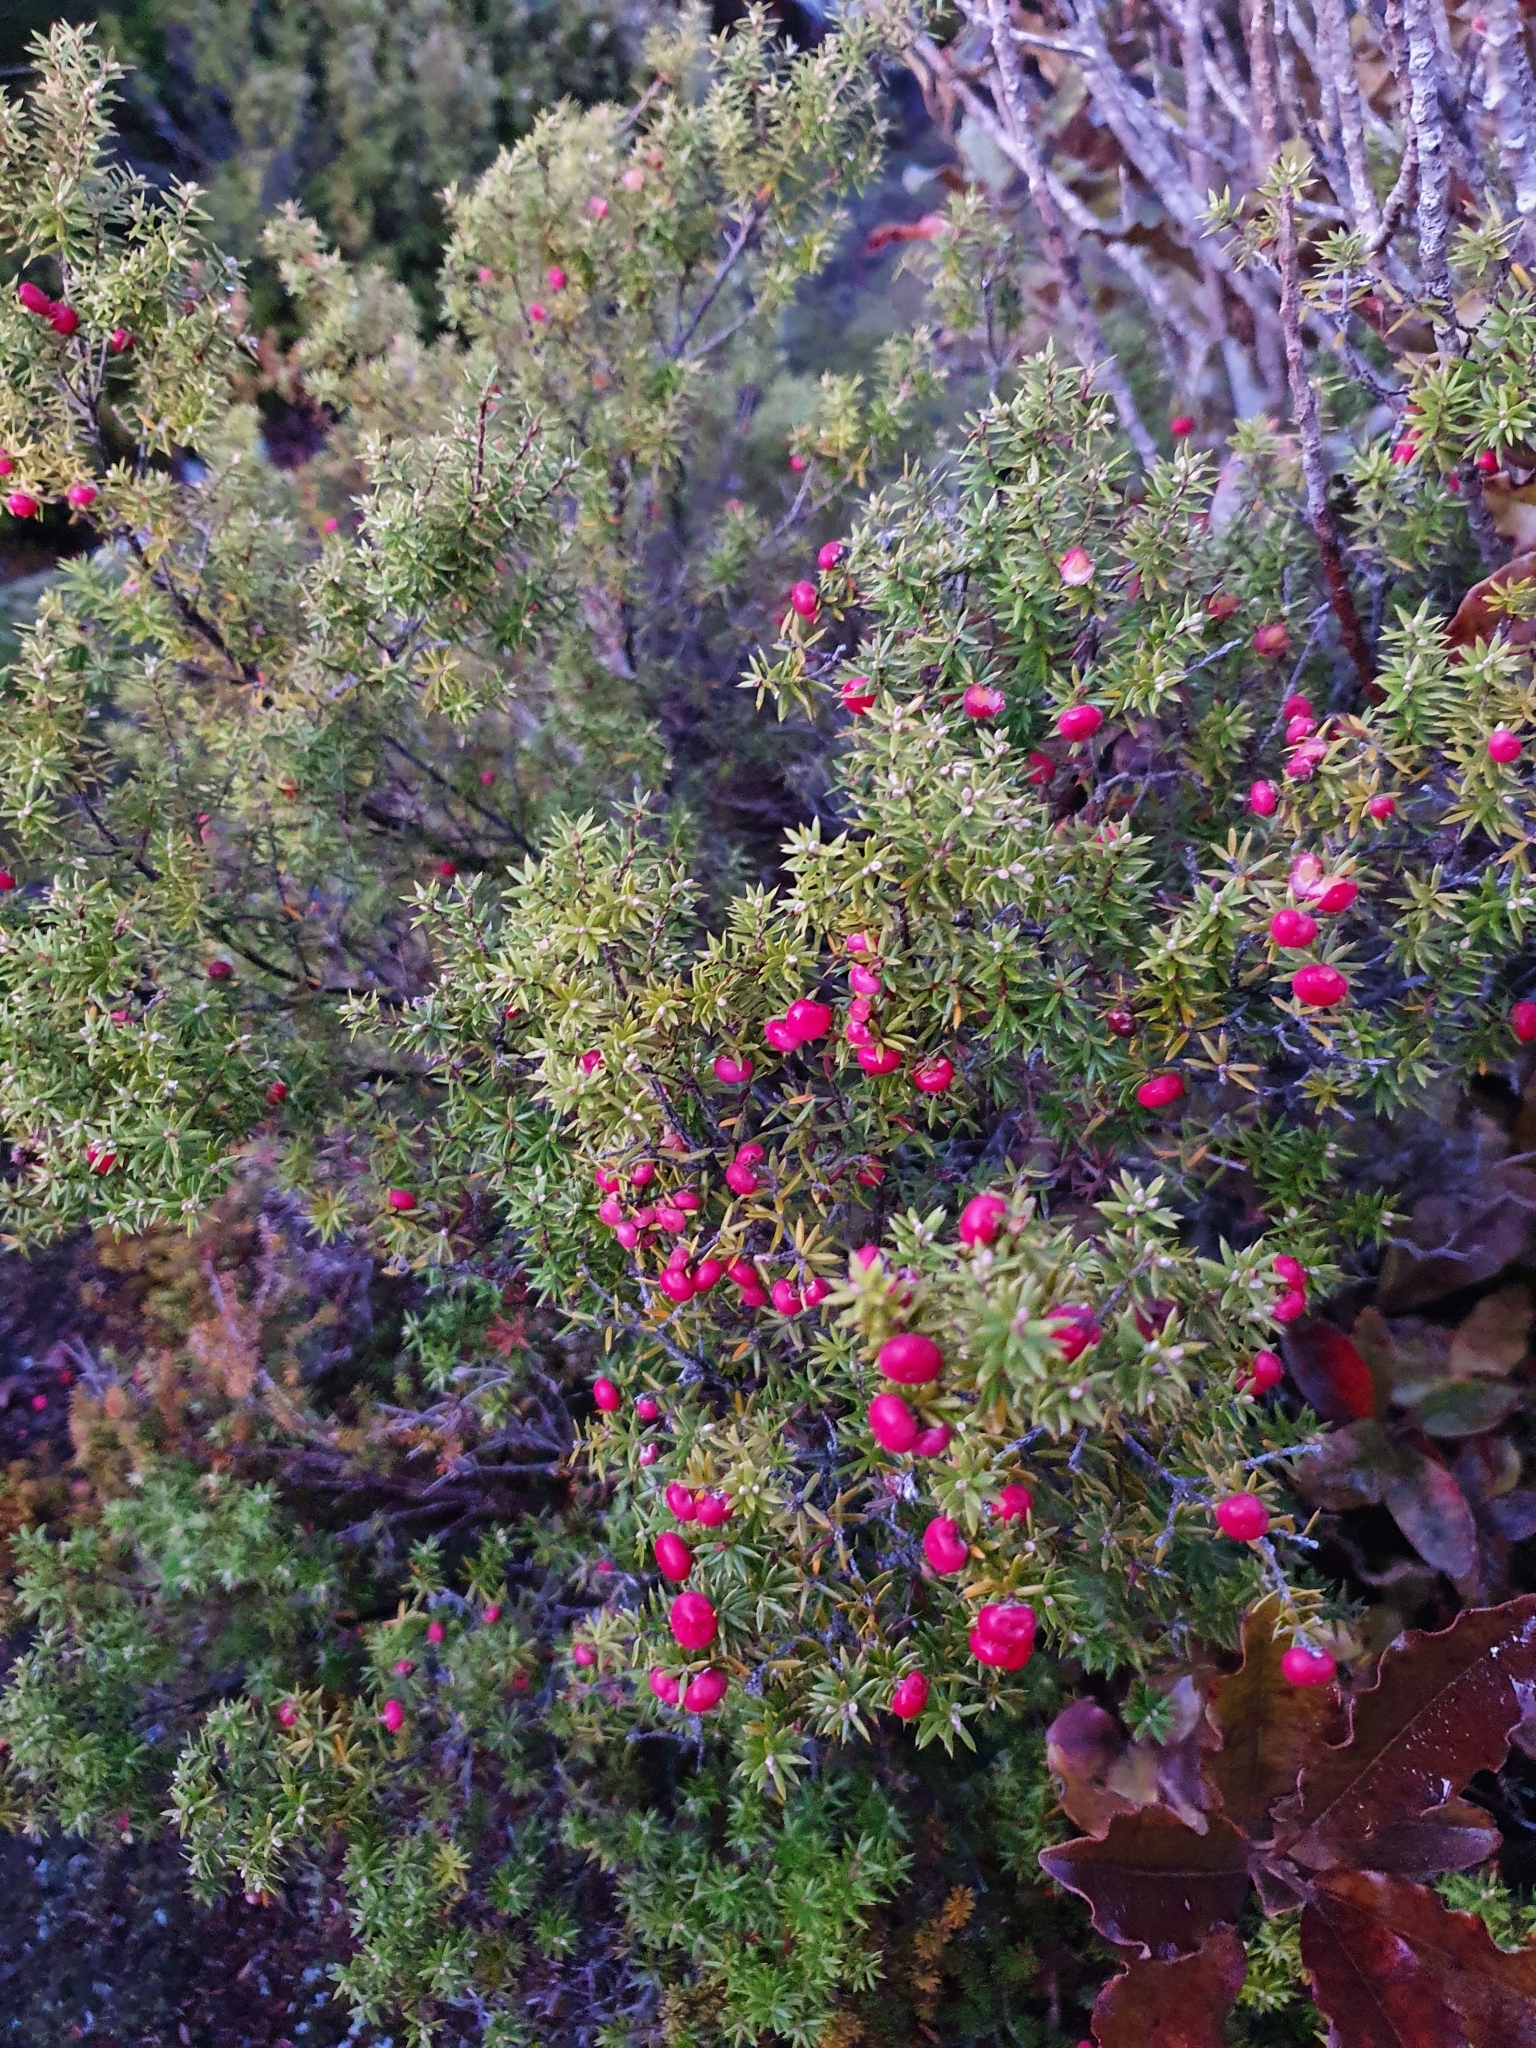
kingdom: Plantae
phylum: Tracheophyta
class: Magnoliopsida
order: Ericales
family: Ericaceae
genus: Leptecophylla
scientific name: Leptecophylla juniperina
